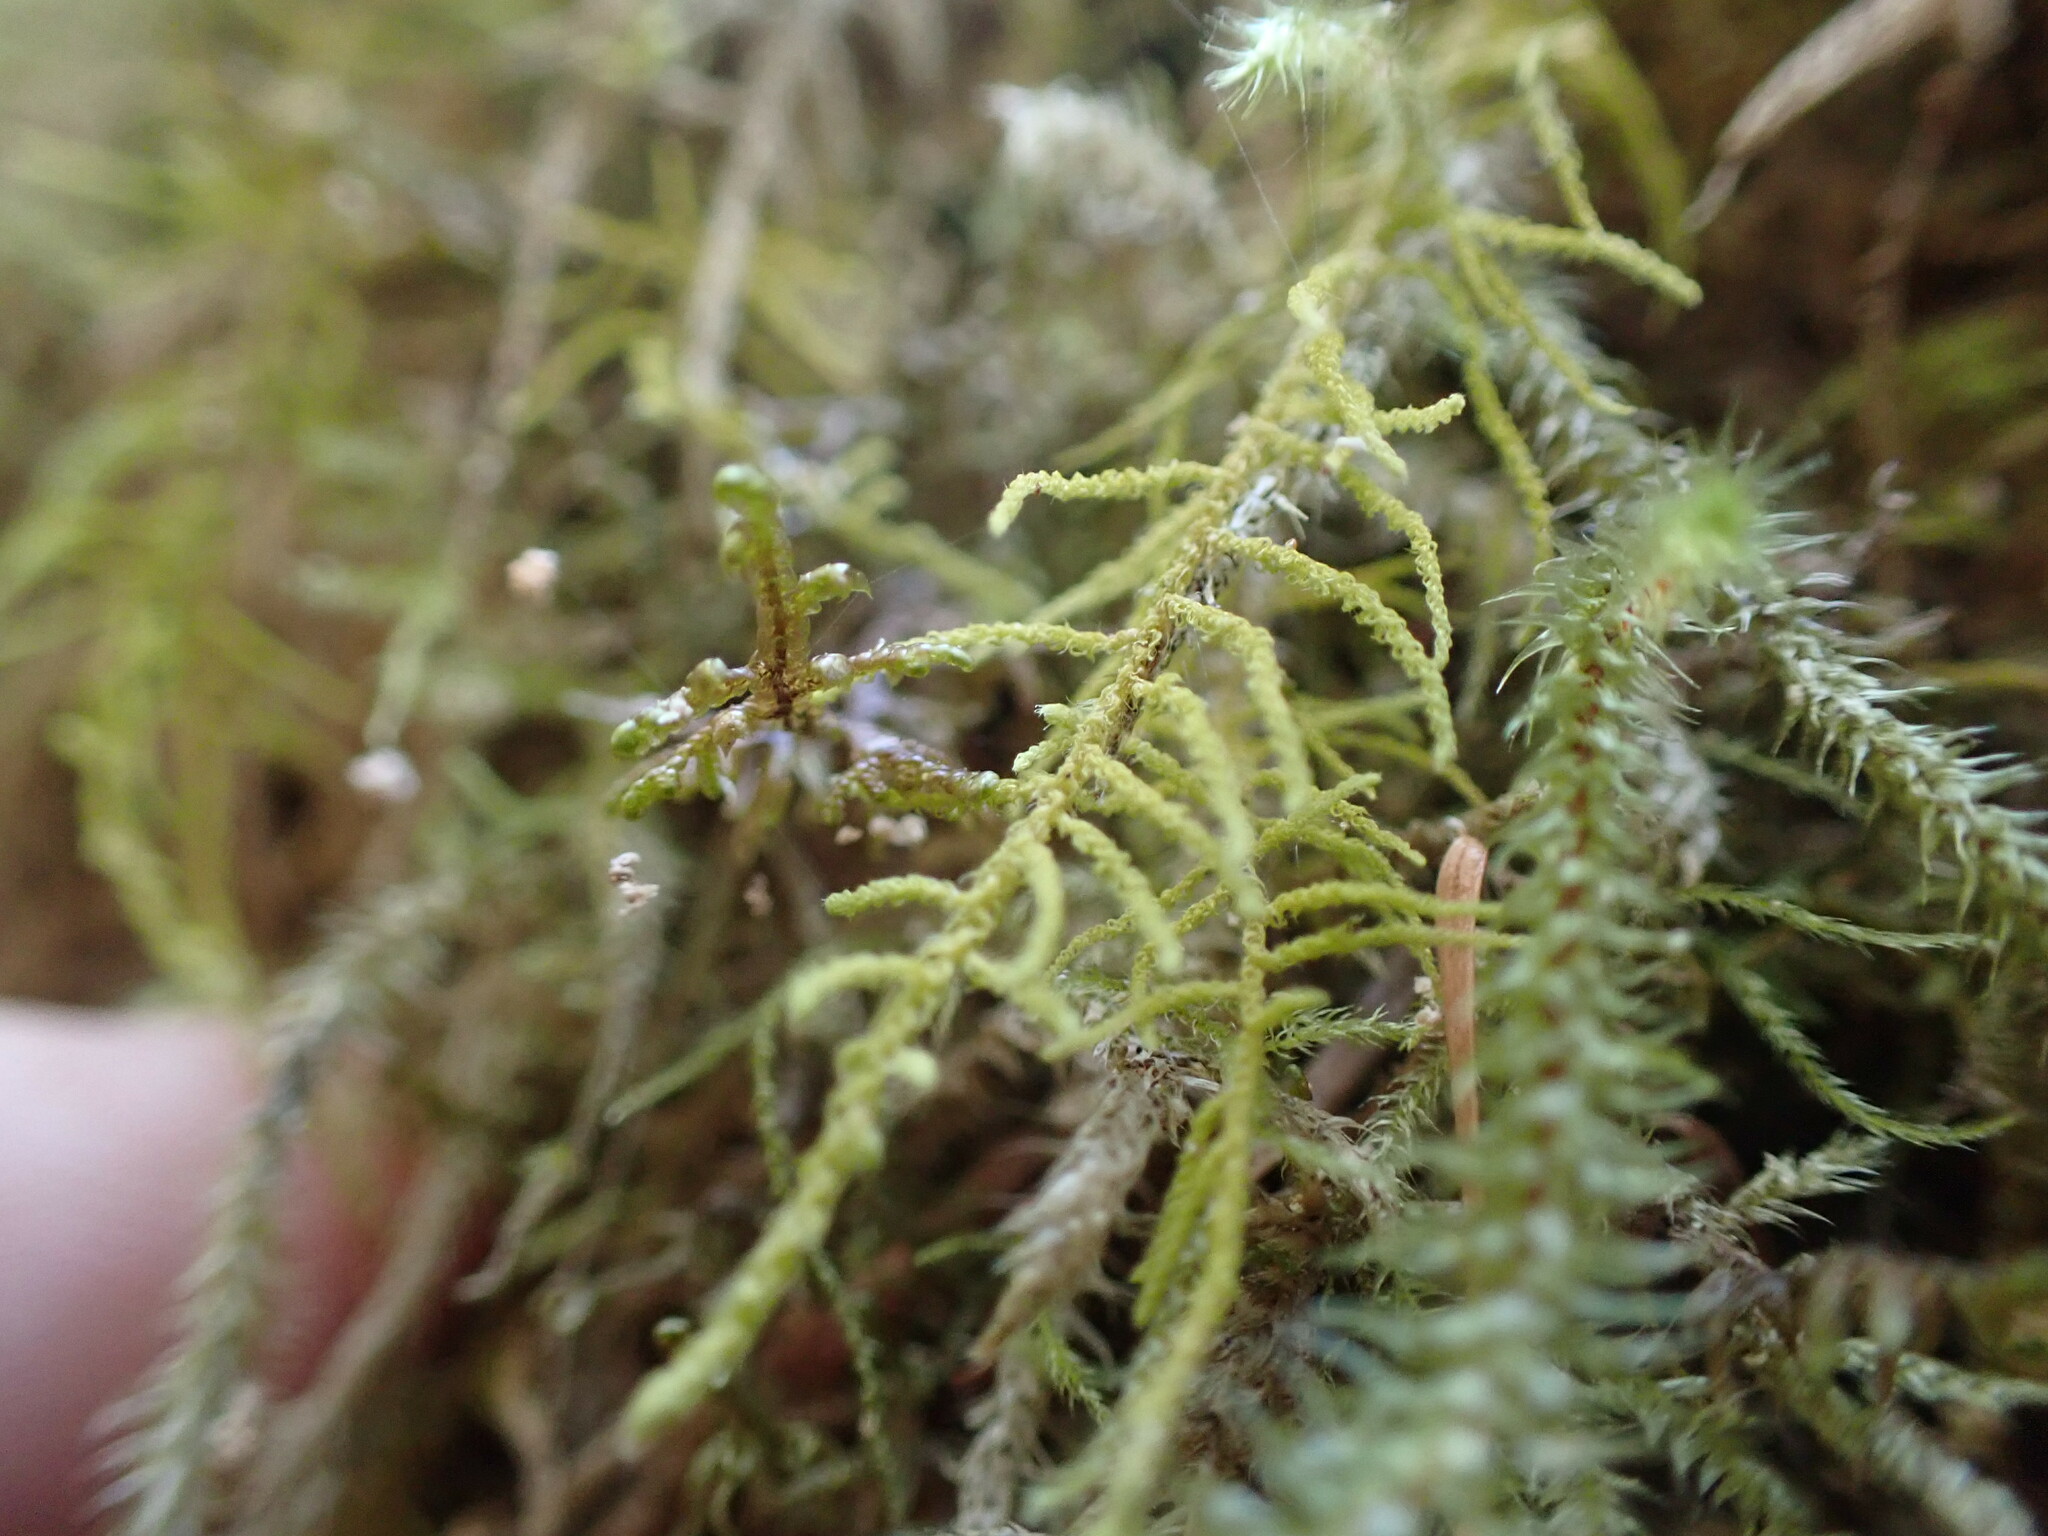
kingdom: Plantae
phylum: Bryophyta
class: Bryopsida
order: Hypnales
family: Brachytheciaceae
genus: Claopodium
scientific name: Claopodium crispifolium
